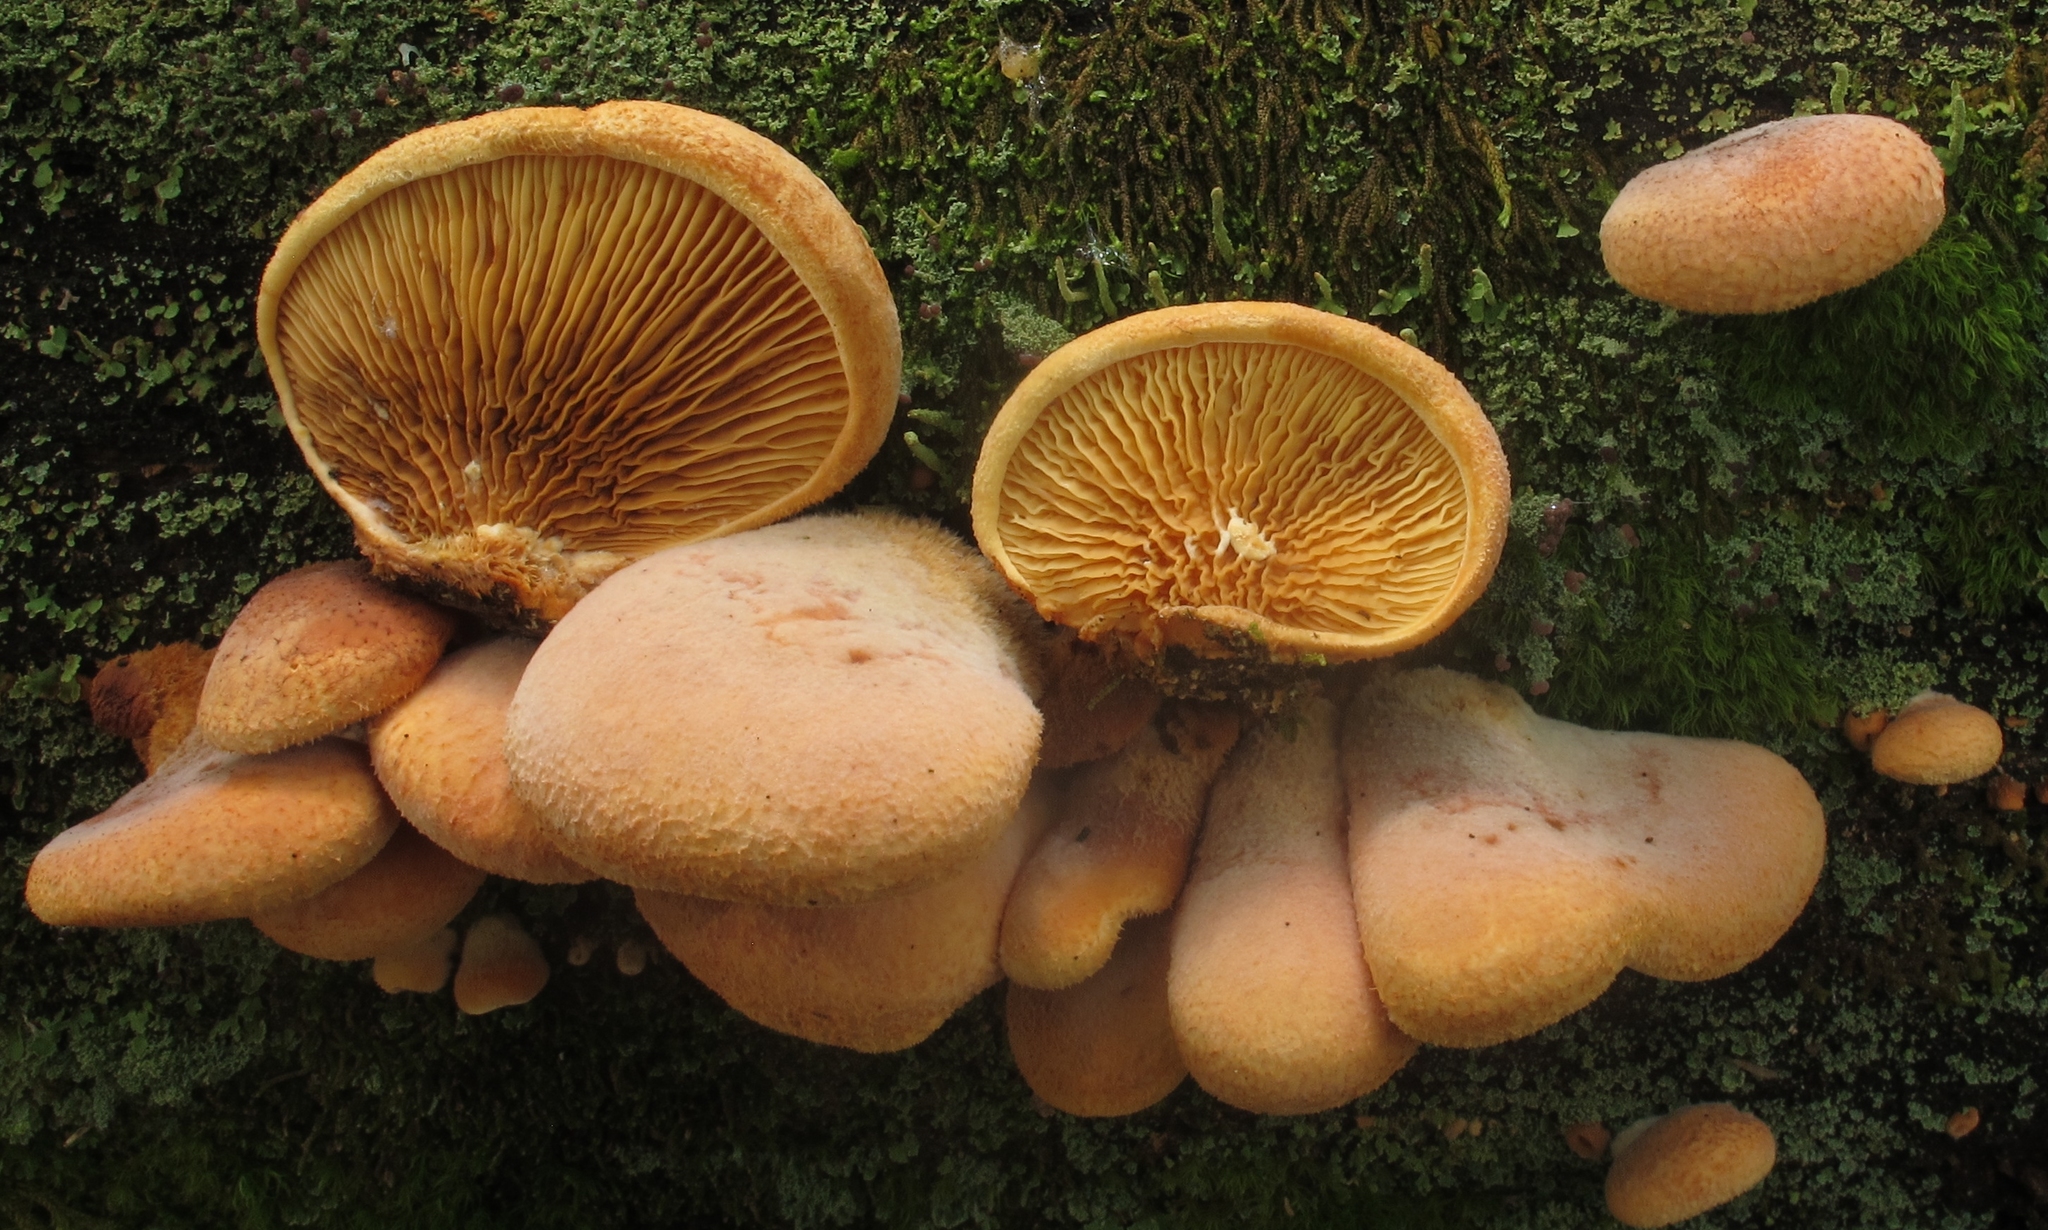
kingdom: Fungi
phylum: Basidiomycota
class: Agaricomycetes
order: Boletales
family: Tapinellaceae
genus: Tapinella
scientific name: Tapinella panuoides
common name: Oyster rollrim
